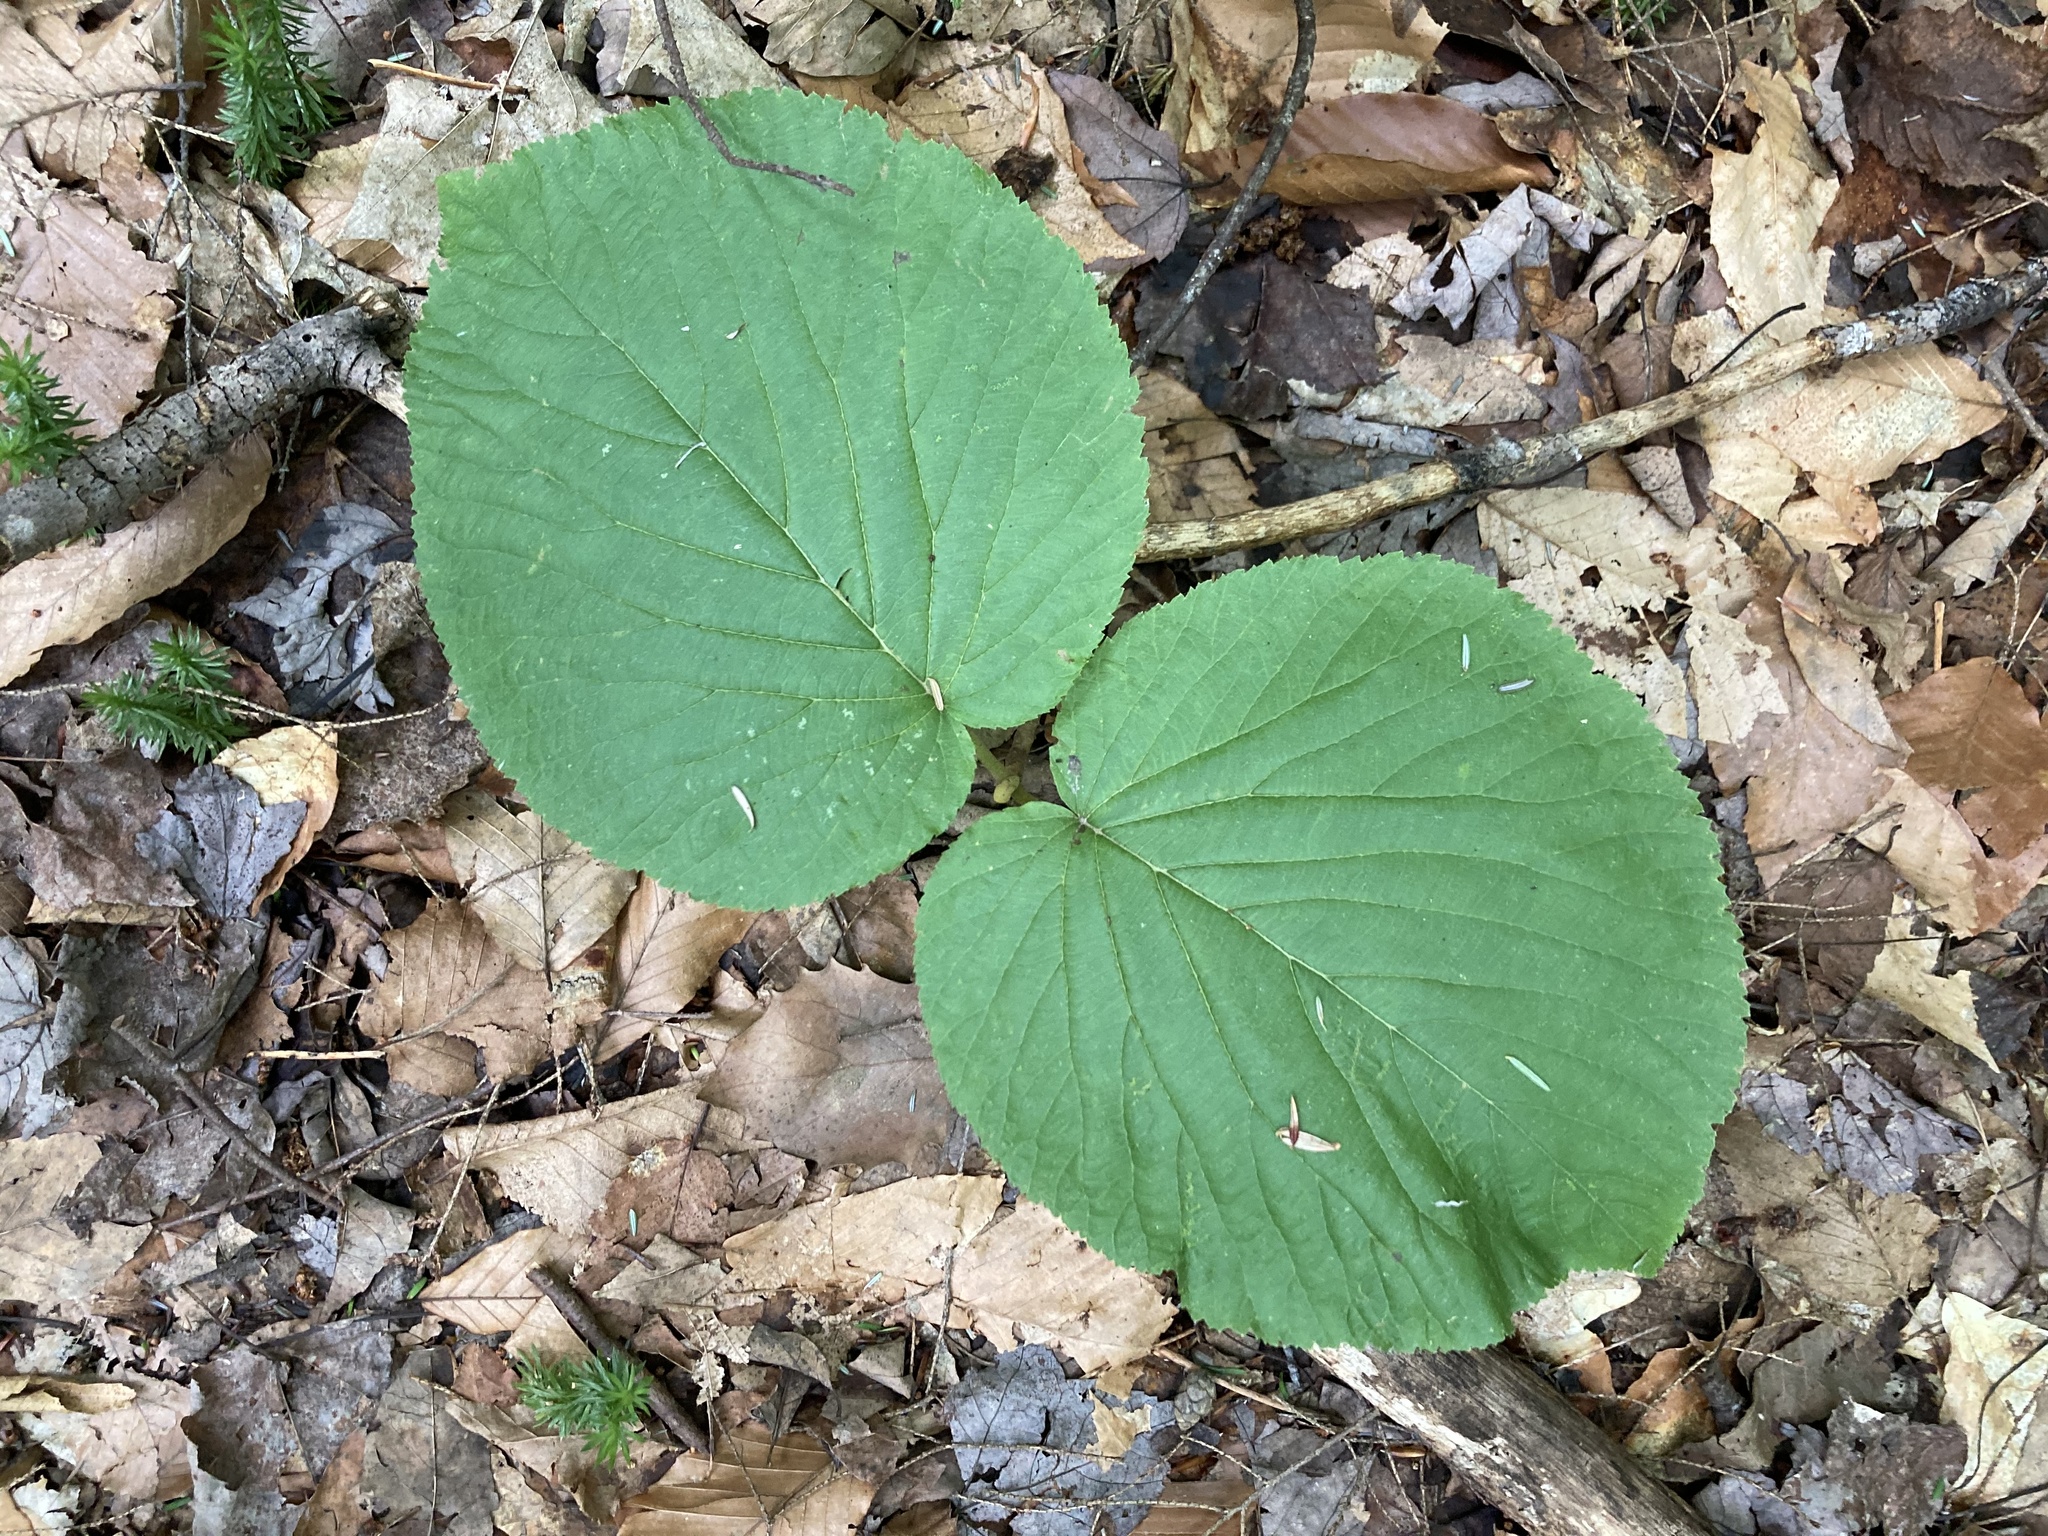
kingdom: Plantae
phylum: Tracheophyta
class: Magnoliopsida
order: Dipsacales
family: Viburnaceae
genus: Viburnum
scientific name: Viburnum lantanoides
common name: Hobblebush
